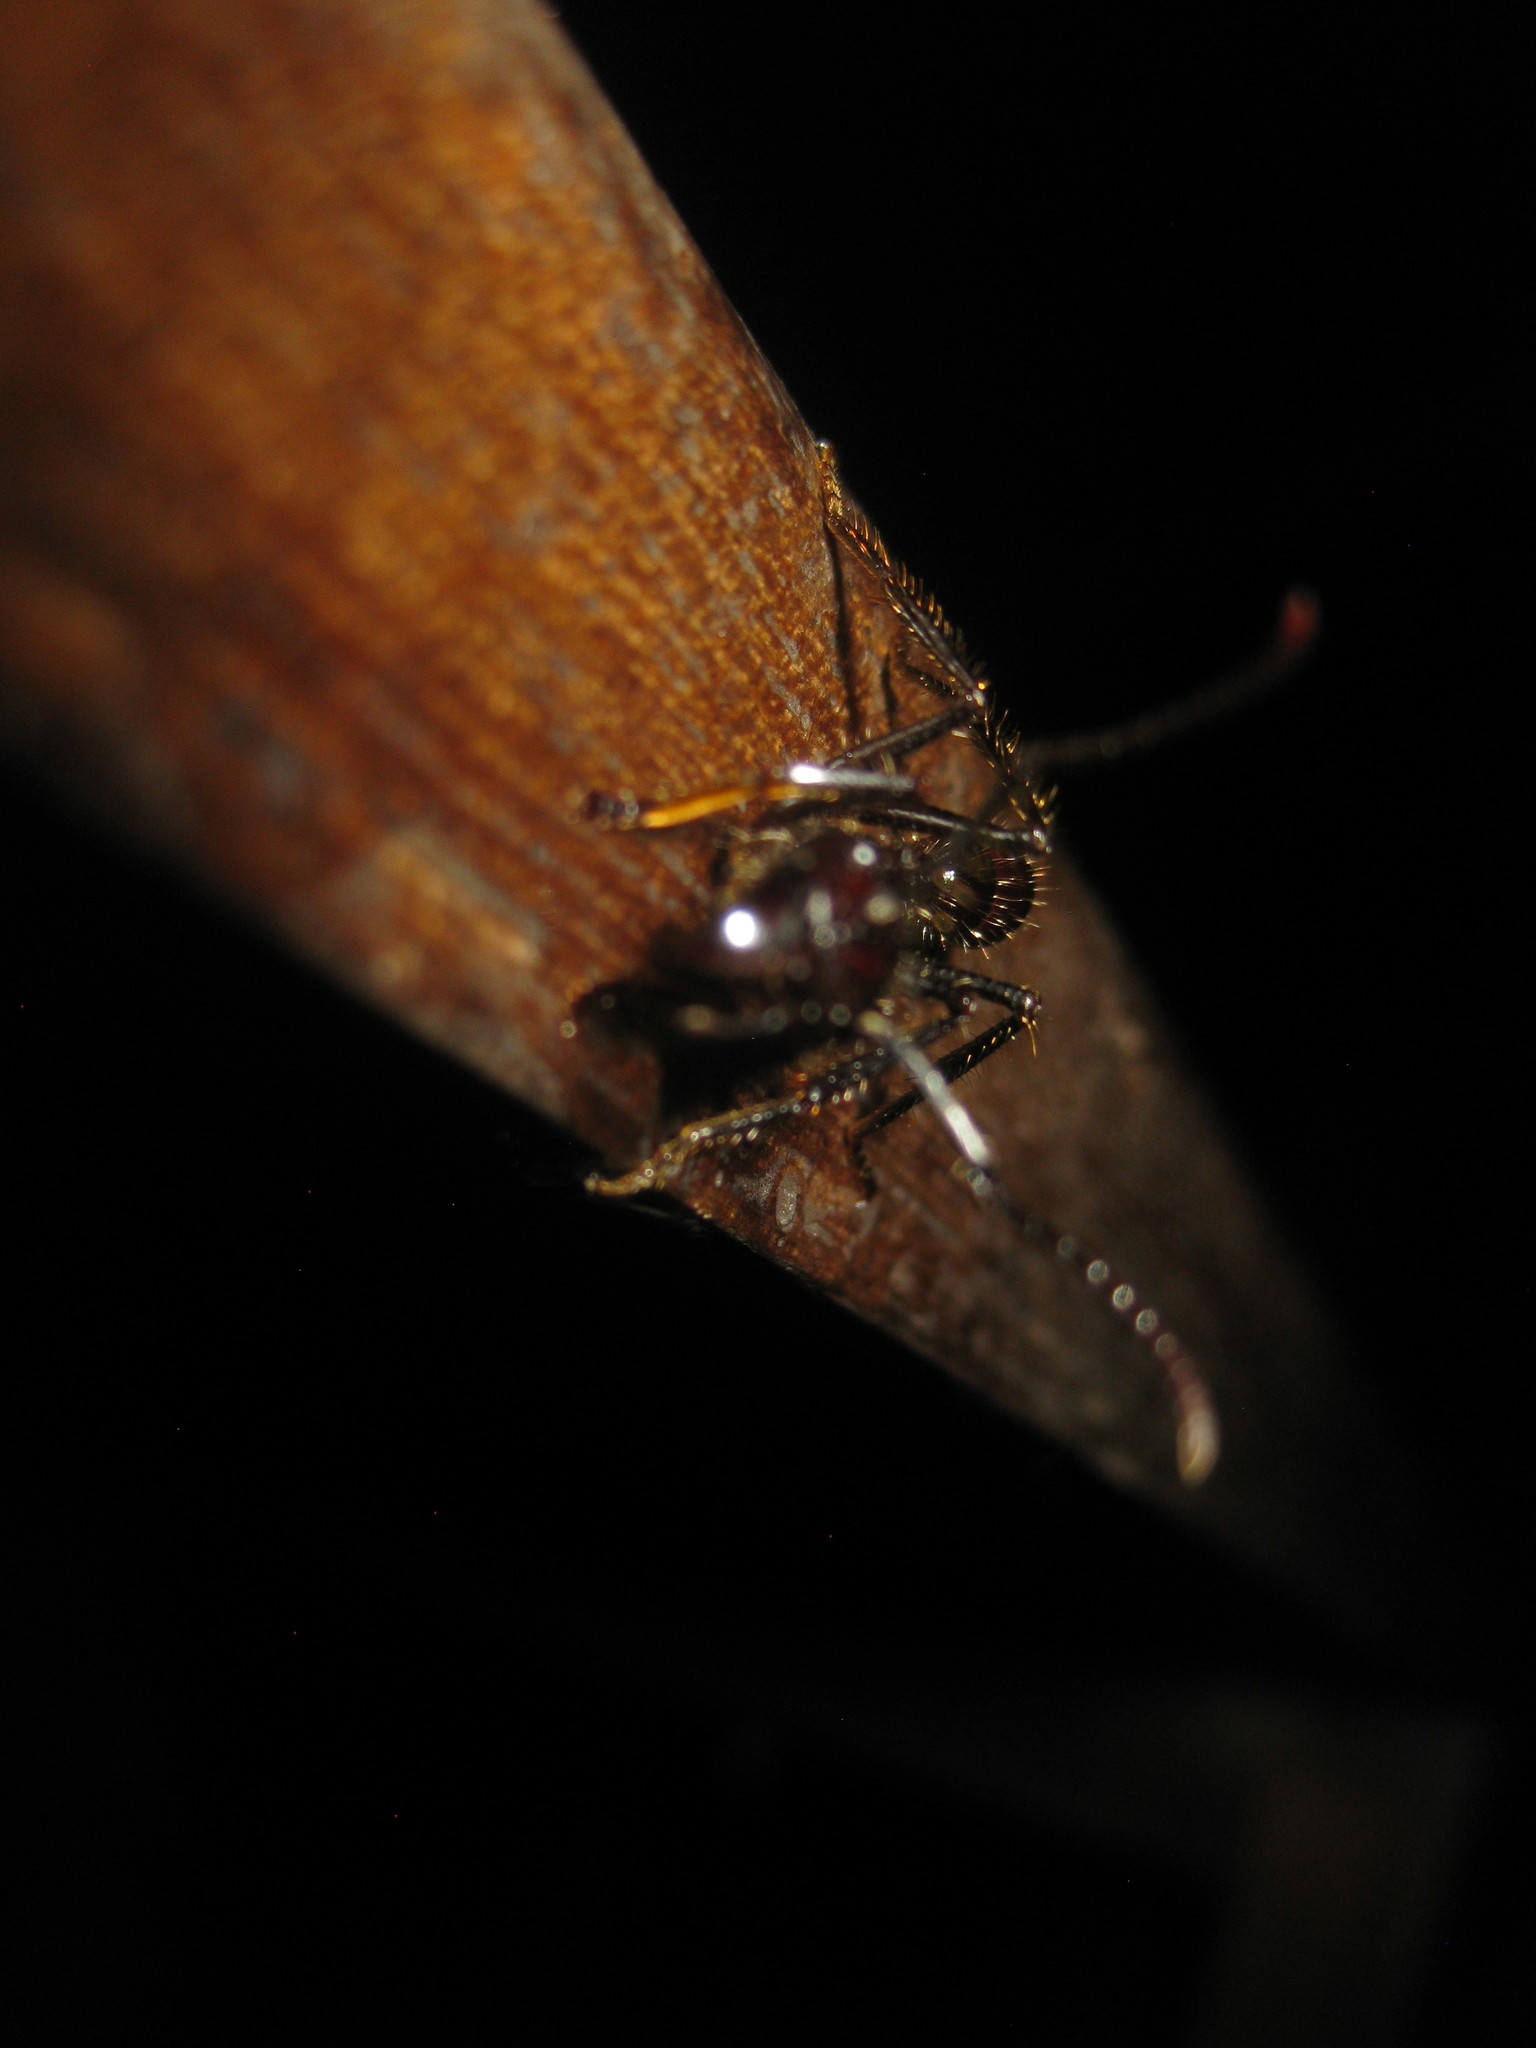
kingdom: Animalia
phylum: Arthropoda
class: Insecta
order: Hymenoptera
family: Formicidae
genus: Paraponera
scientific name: Paraponera clavata
